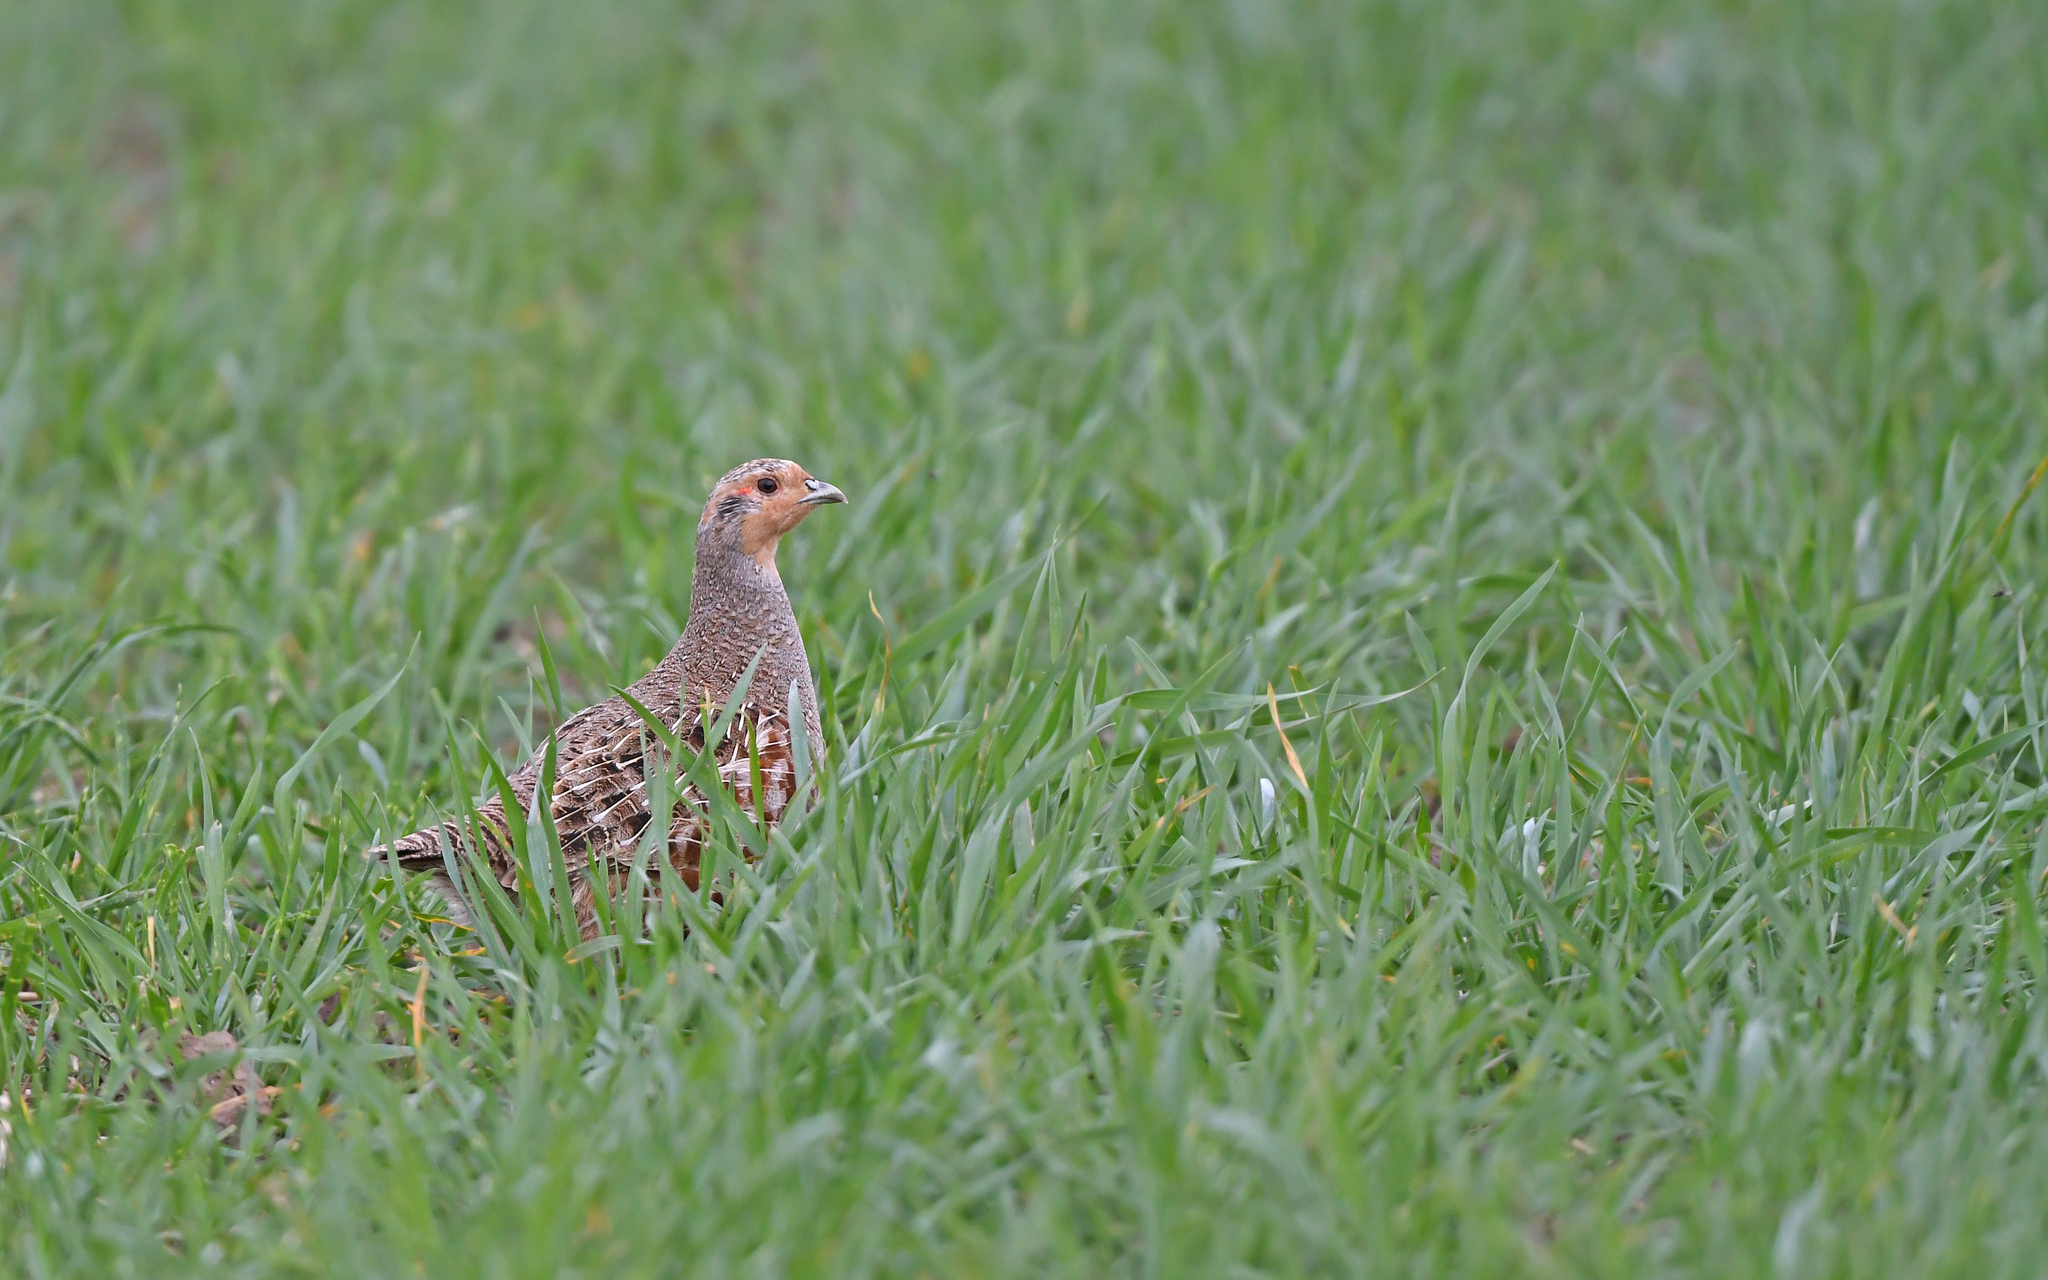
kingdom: Animalia
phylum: Chordata
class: Aves
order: Galliformes
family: Phasianidae
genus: Perdix
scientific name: Perdix perdix
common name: Grey partridge
